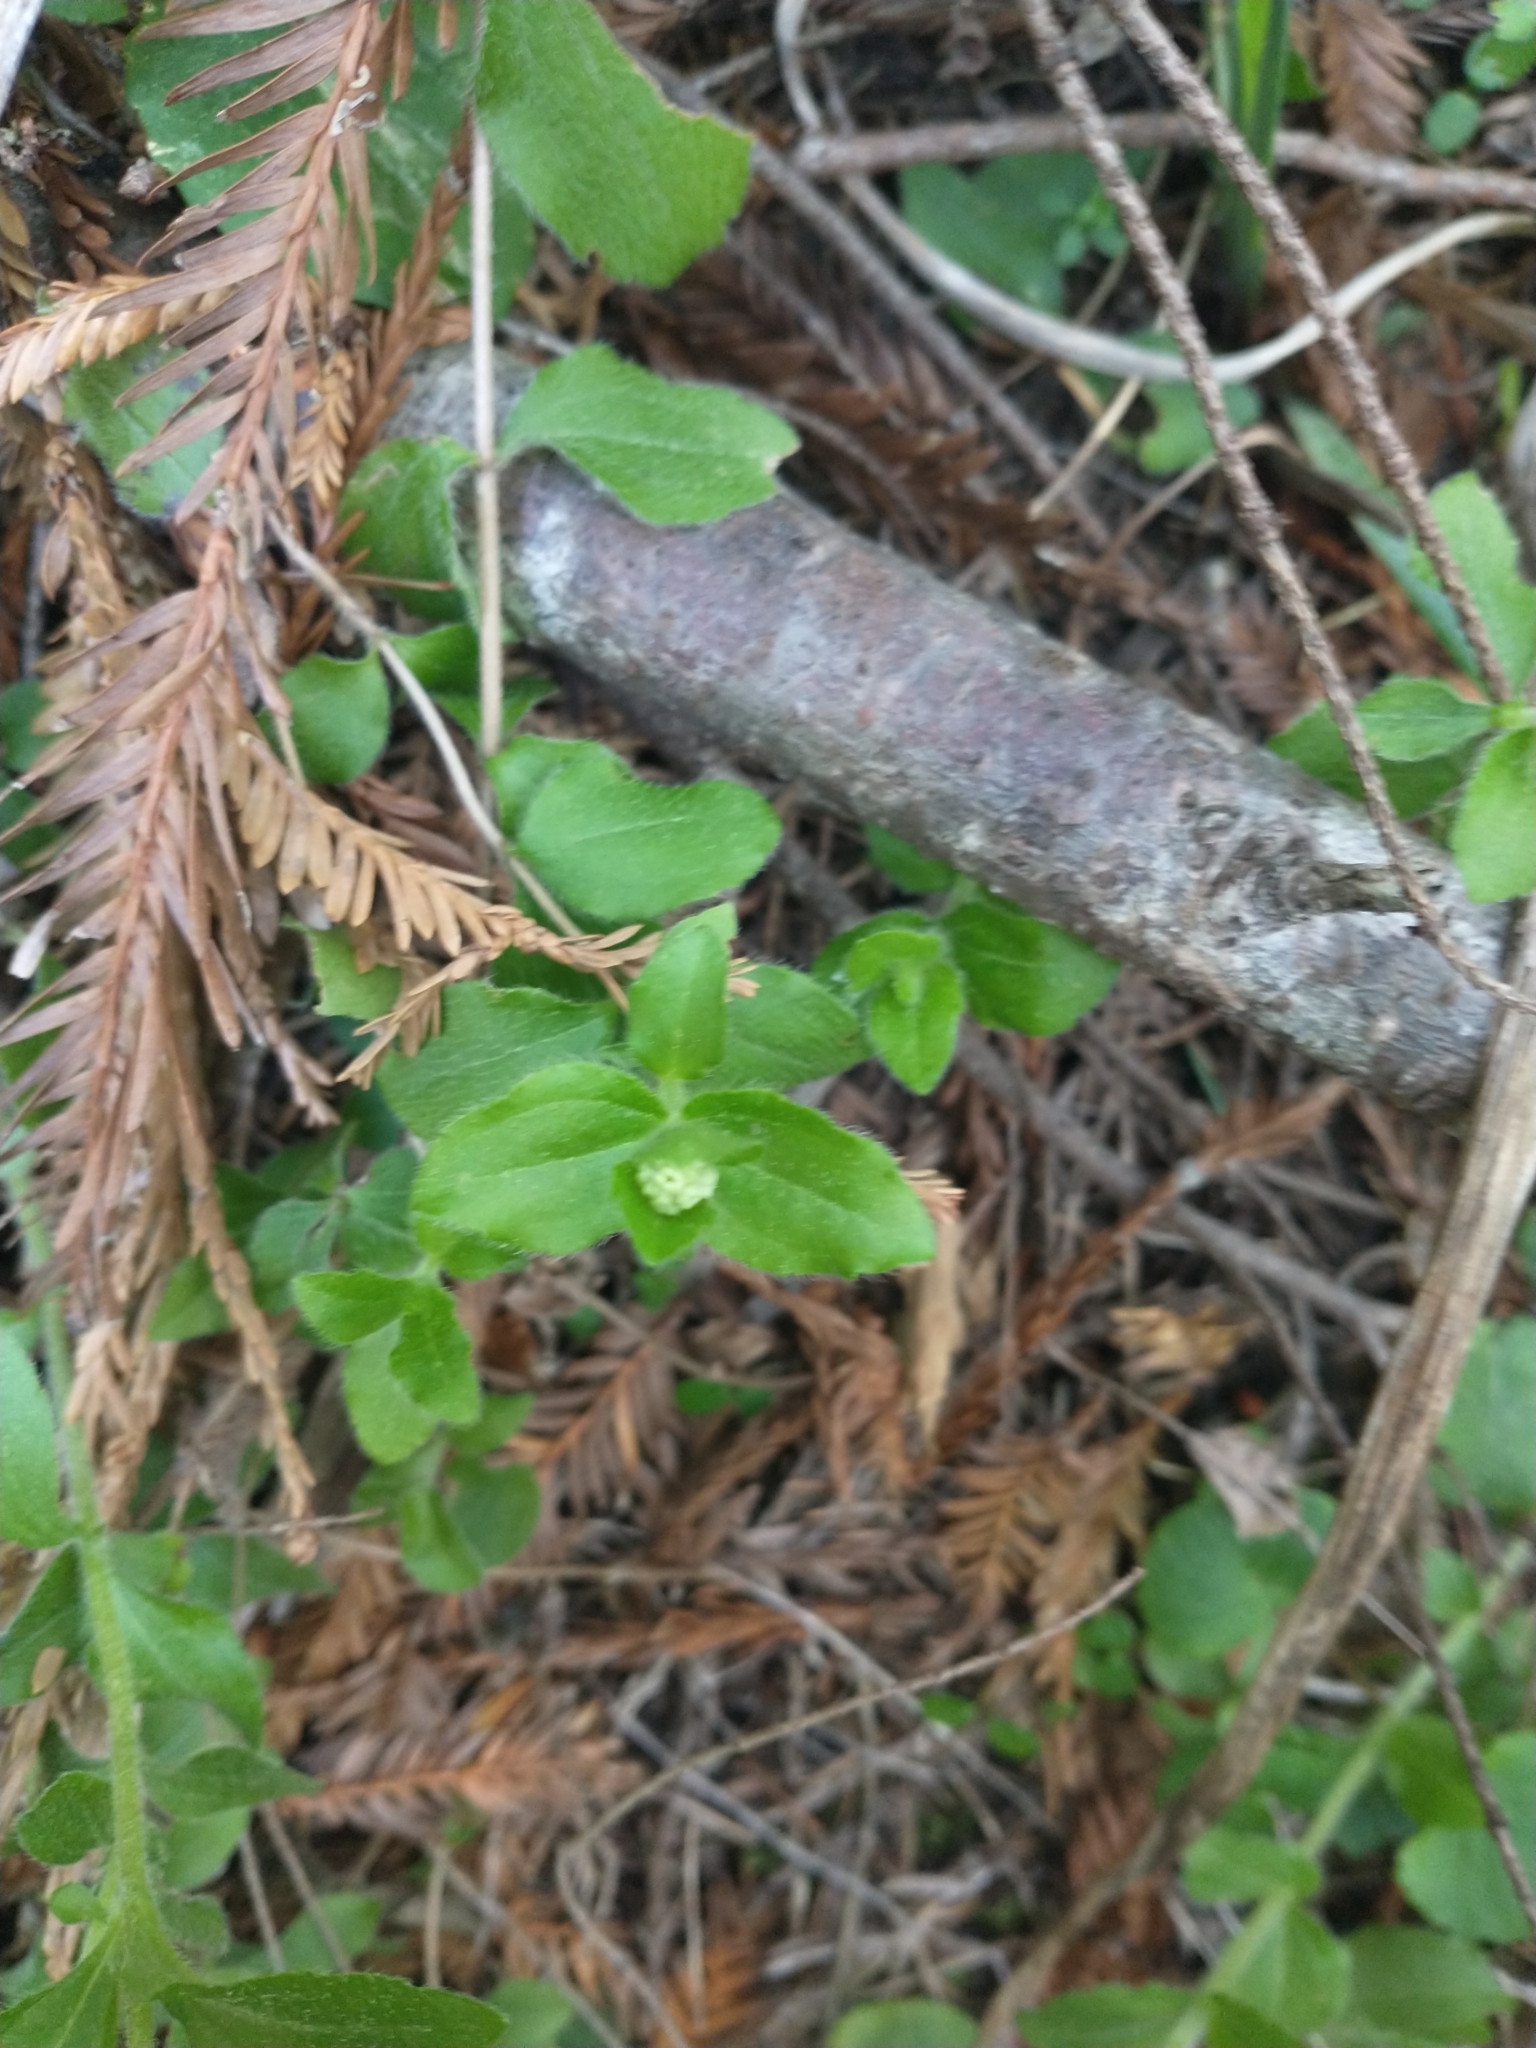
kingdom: Plantae
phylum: Tracheophyta
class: Magnoliopsida
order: Cornales
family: Hydrangeaceae
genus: Whipplea
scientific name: Whipplea modesta
